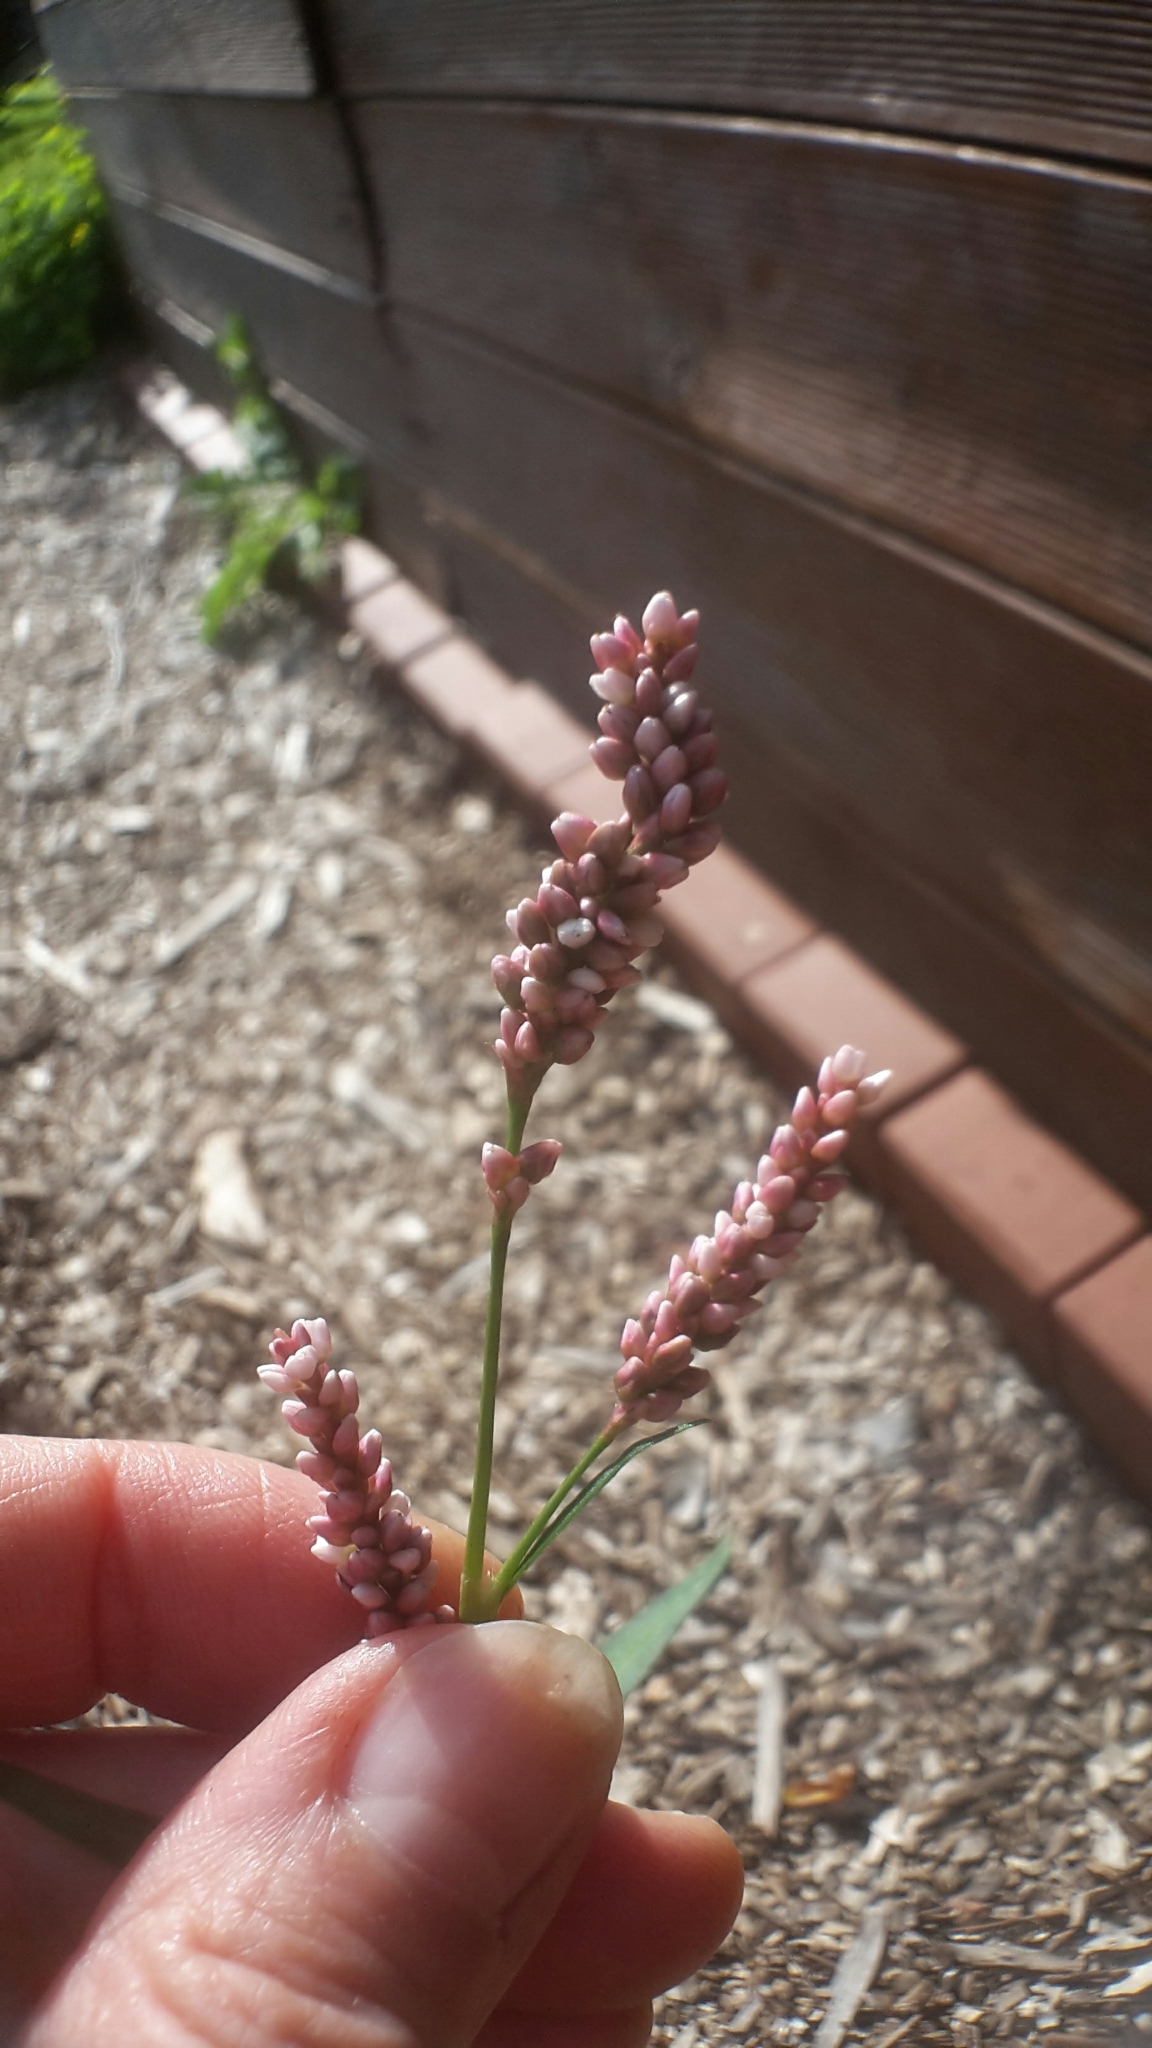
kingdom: Plantae
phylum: Tracheophyta
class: Magnoliopsida
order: Caryophyllales
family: Polygonaceae
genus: Persicaria
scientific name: Persicaria maculosa
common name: Redshank
